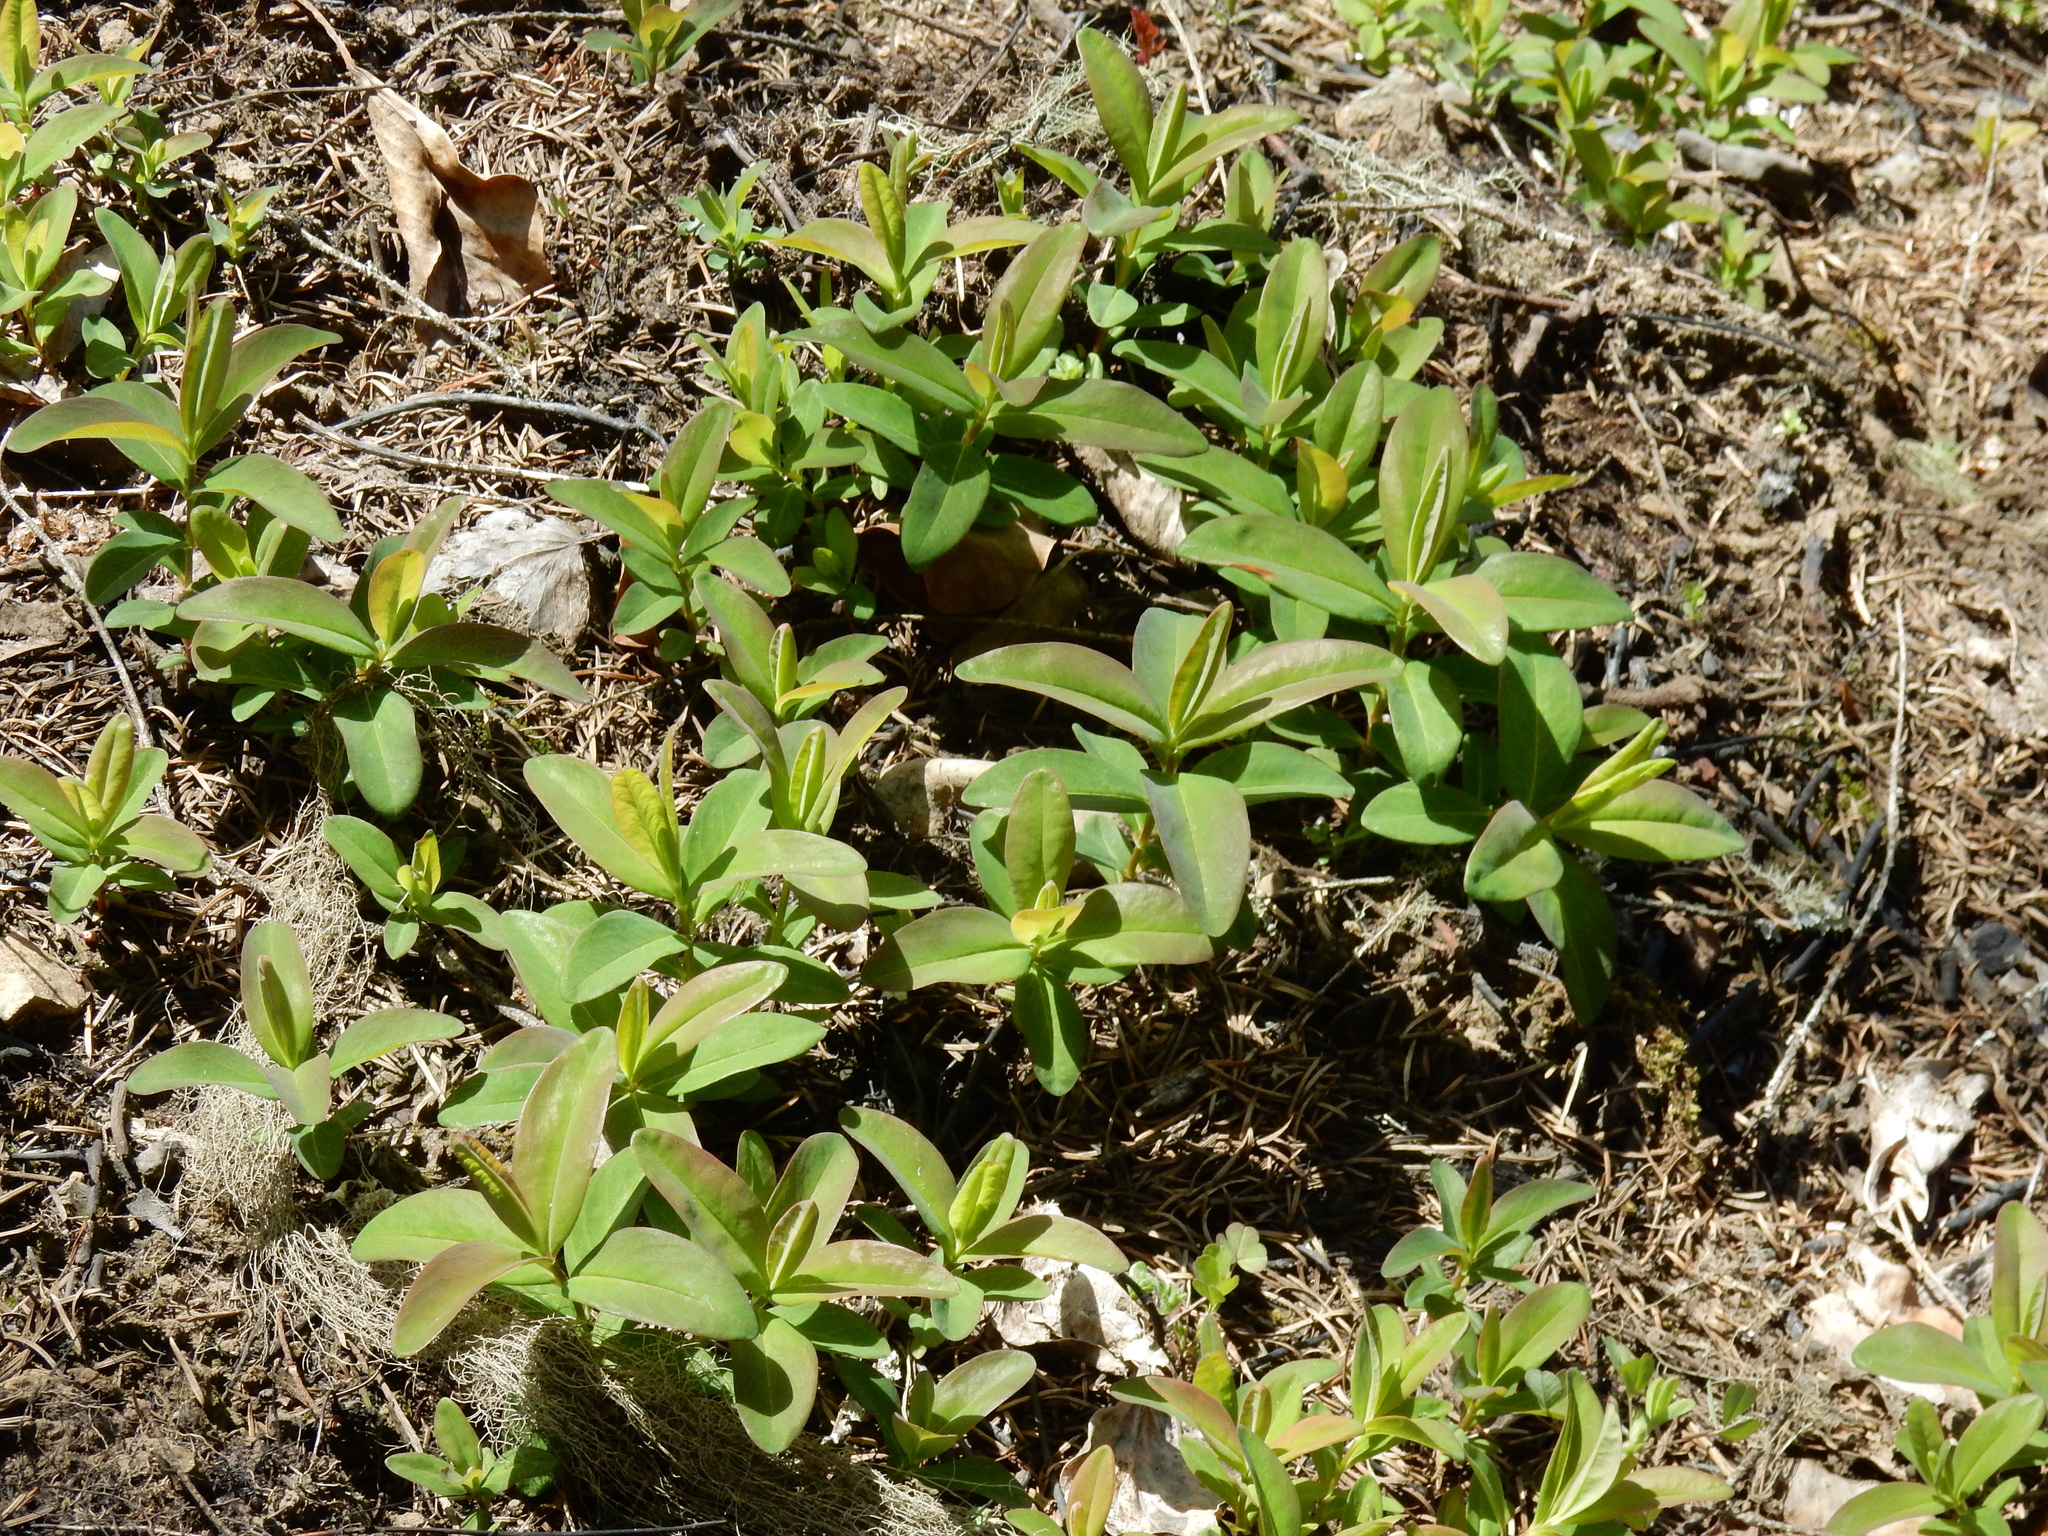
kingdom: Plantae
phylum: Tracheophyta
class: Magnoliopsida
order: Malpighiales
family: Hypericaceae
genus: Hypericum
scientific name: Hypericum calycinum
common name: Rose-of-sharon
